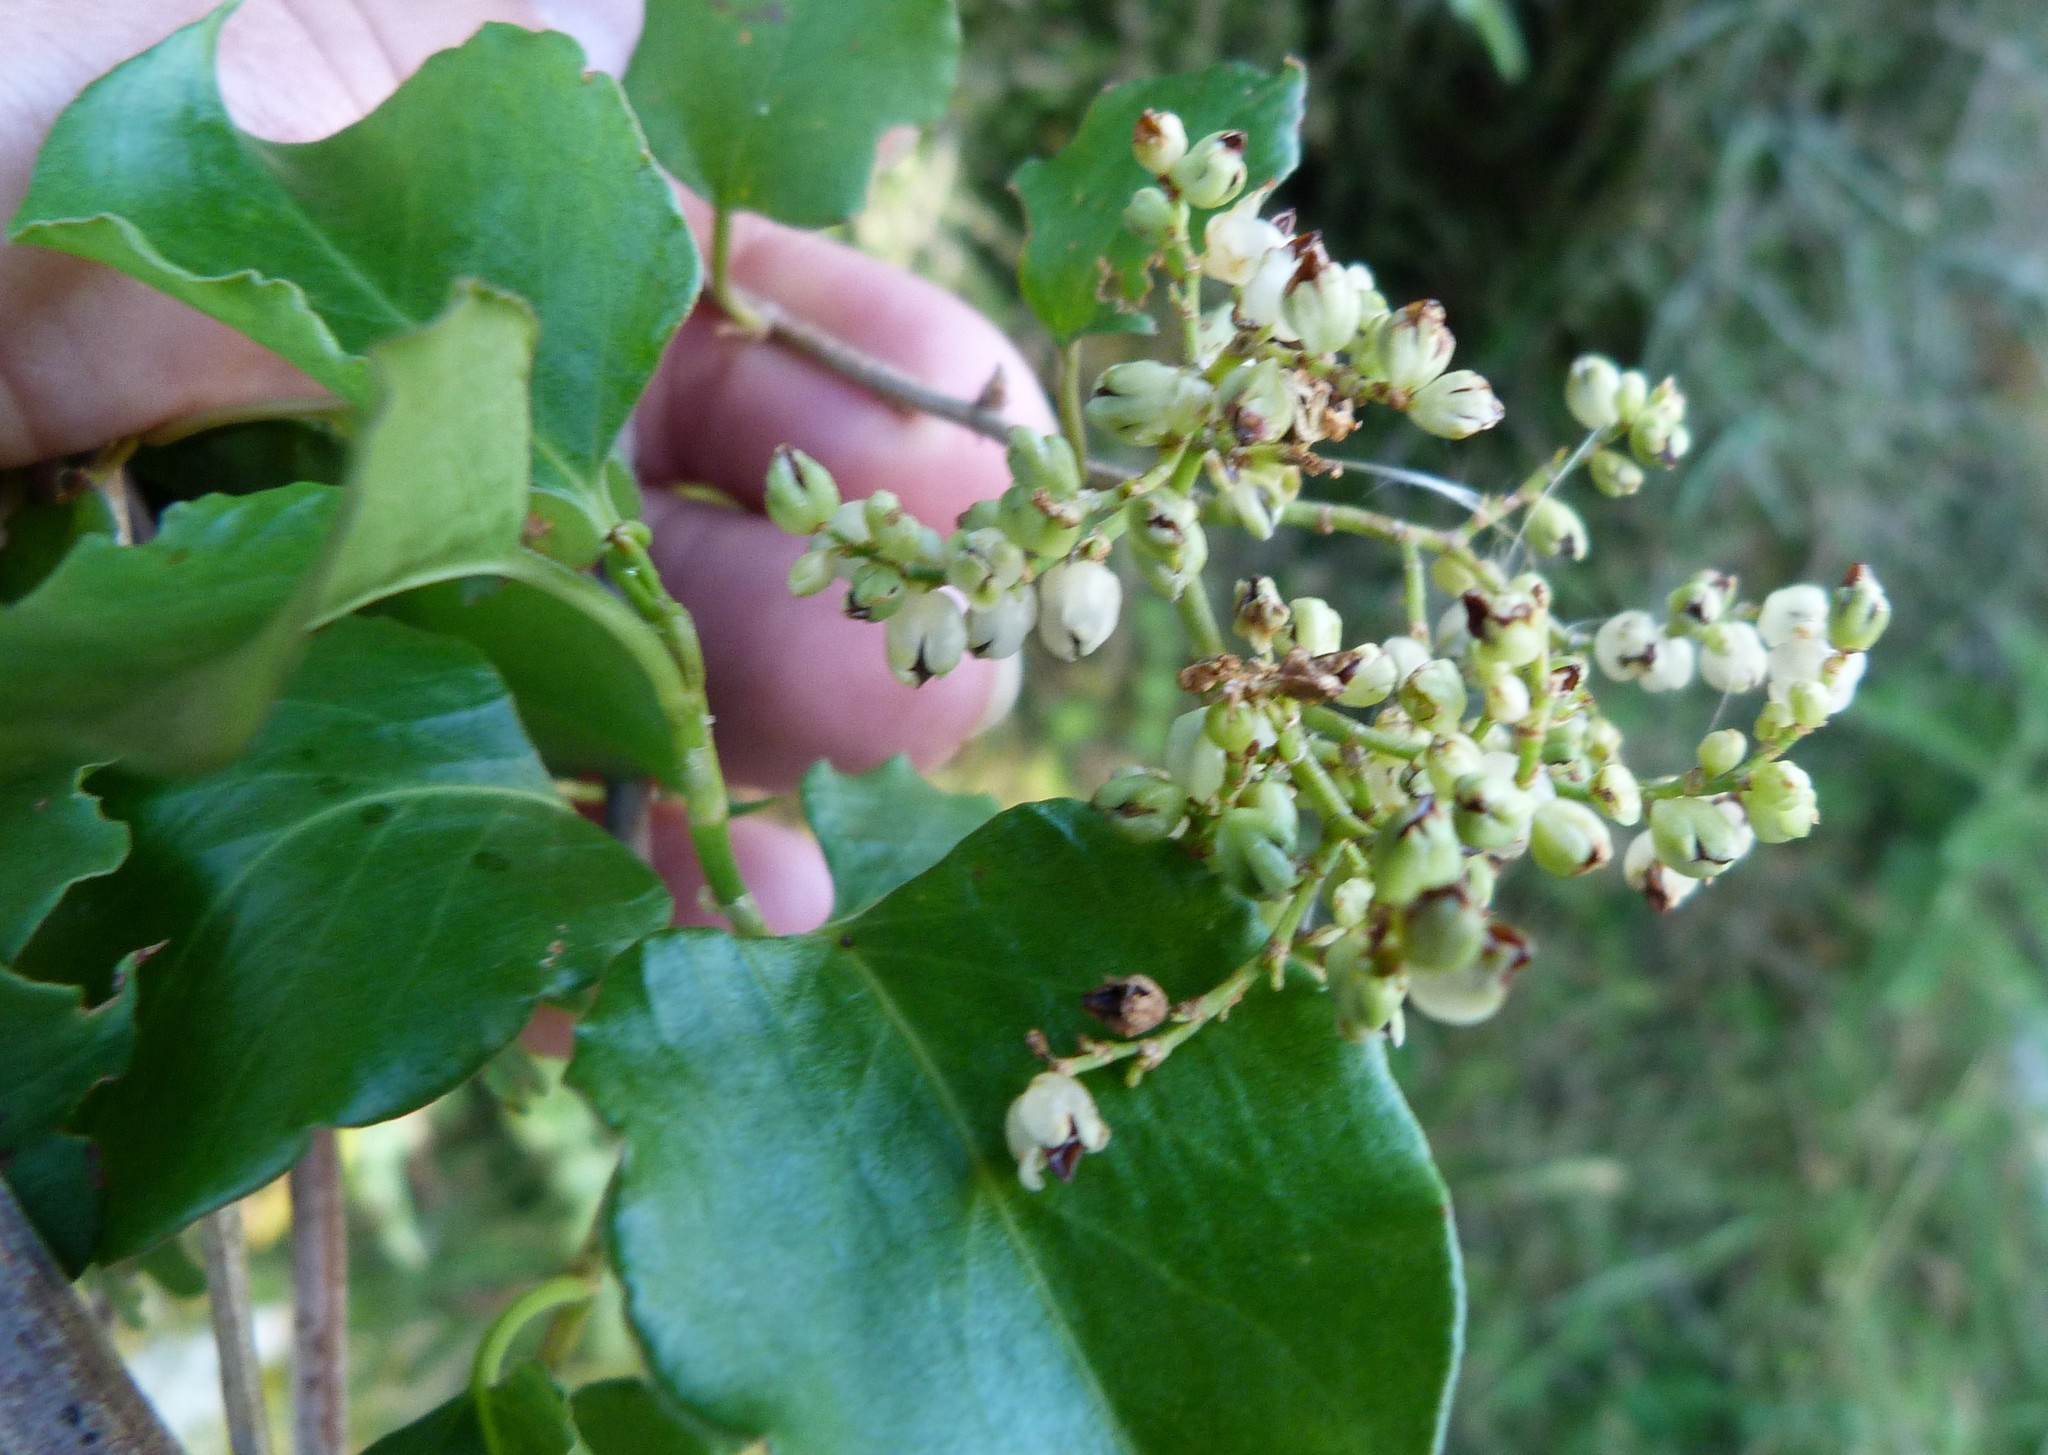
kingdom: Plantae
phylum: Tracheophyta
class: Magnoliopsida
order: Caryophyllales
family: Polygonaceae
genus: Muehlenbeckia
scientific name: Muehlenbeckia australis
